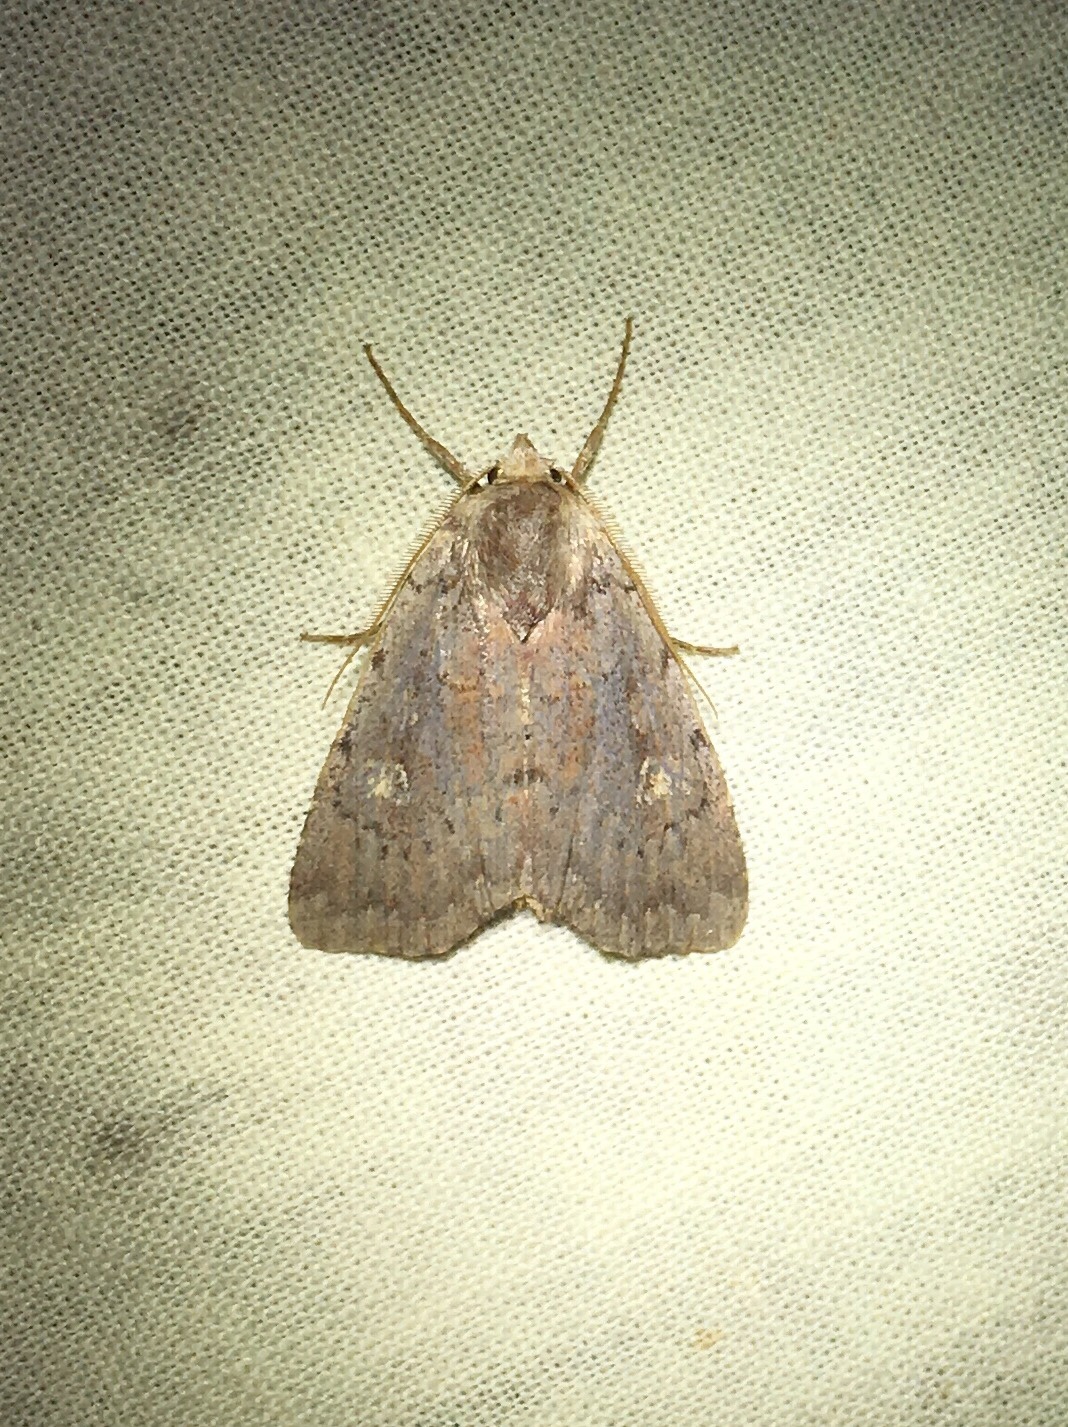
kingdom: Animalia
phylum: Arthropoda
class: Insecta
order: Lepidoptera
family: Noctuidae
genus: Xestia
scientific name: Xestia dilucida
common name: Dull reddish dart
